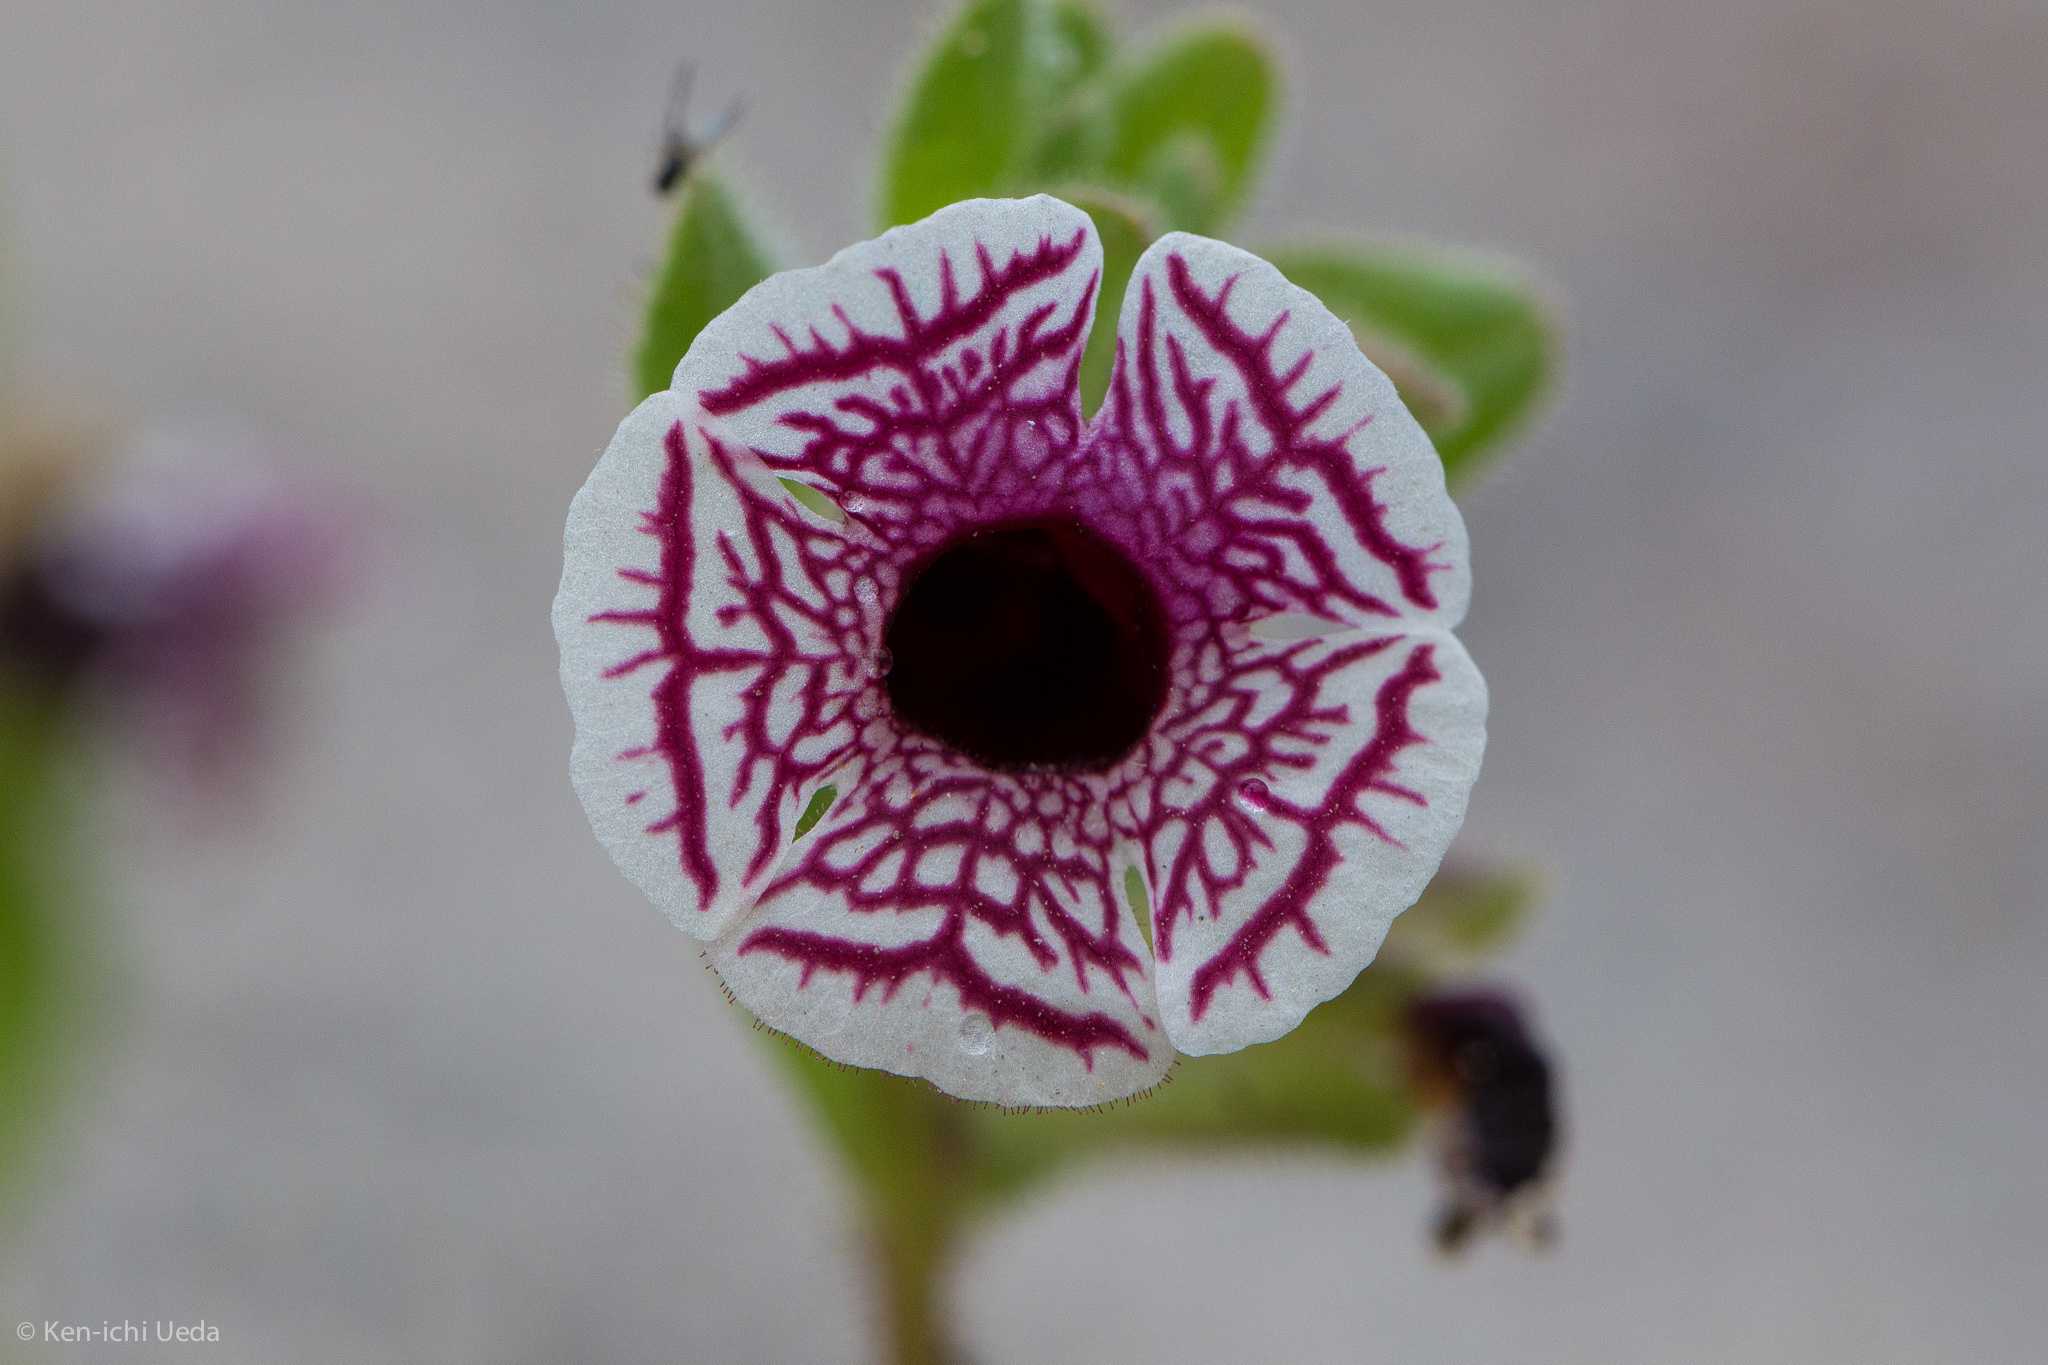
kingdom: Plantae
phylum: Tracheophyta
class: Magnoliopsida
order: Lamiales
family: Phrymaceae
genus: Diplacus
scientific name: Diplacus pictus
